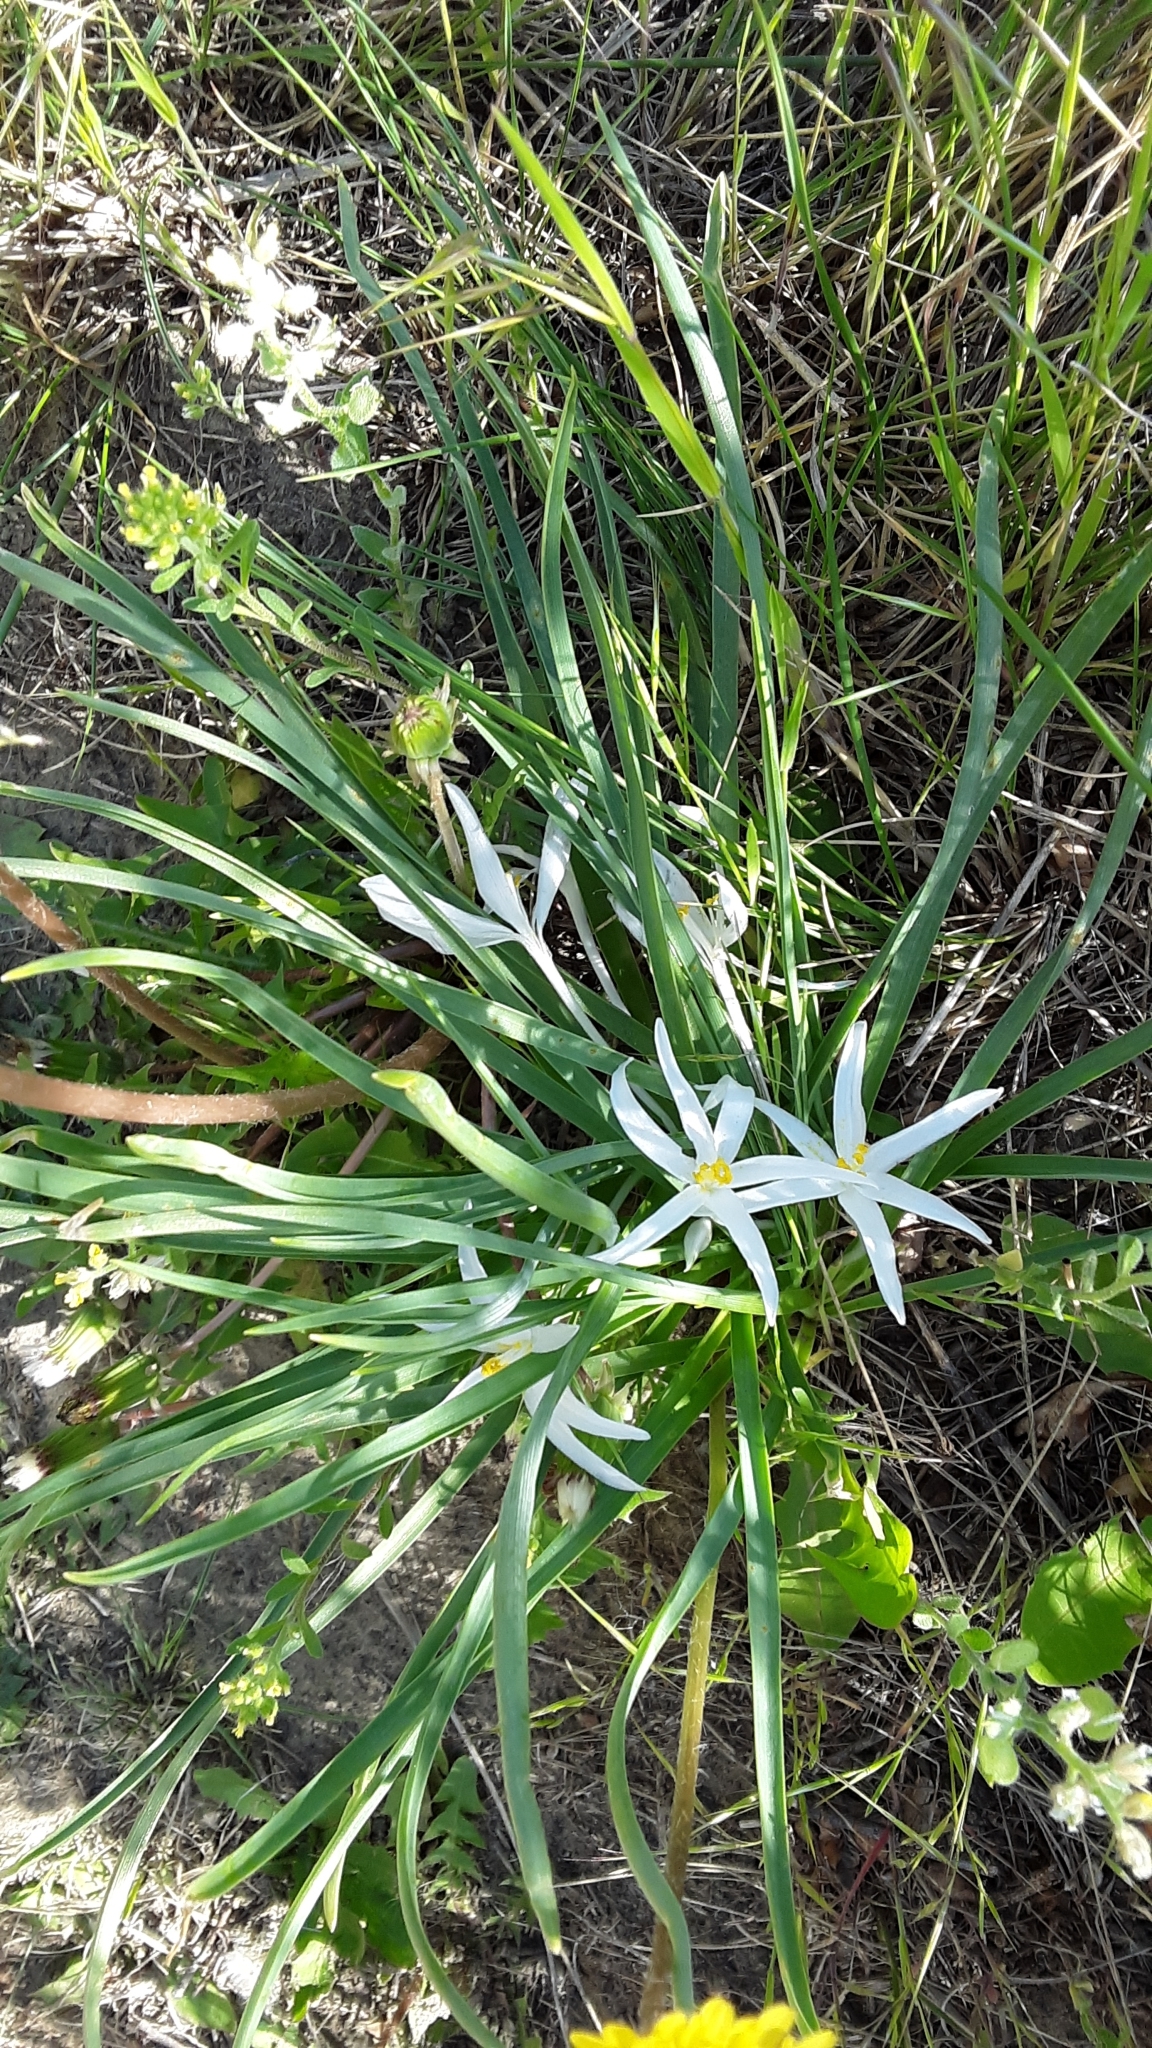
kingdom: Plantae
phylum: Tracheophyta
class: Liliopsida
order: Asparagales
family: Asparagaceae
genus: Leucocrinum
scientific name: Leucocrinum montanum
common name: Mountain-lily
